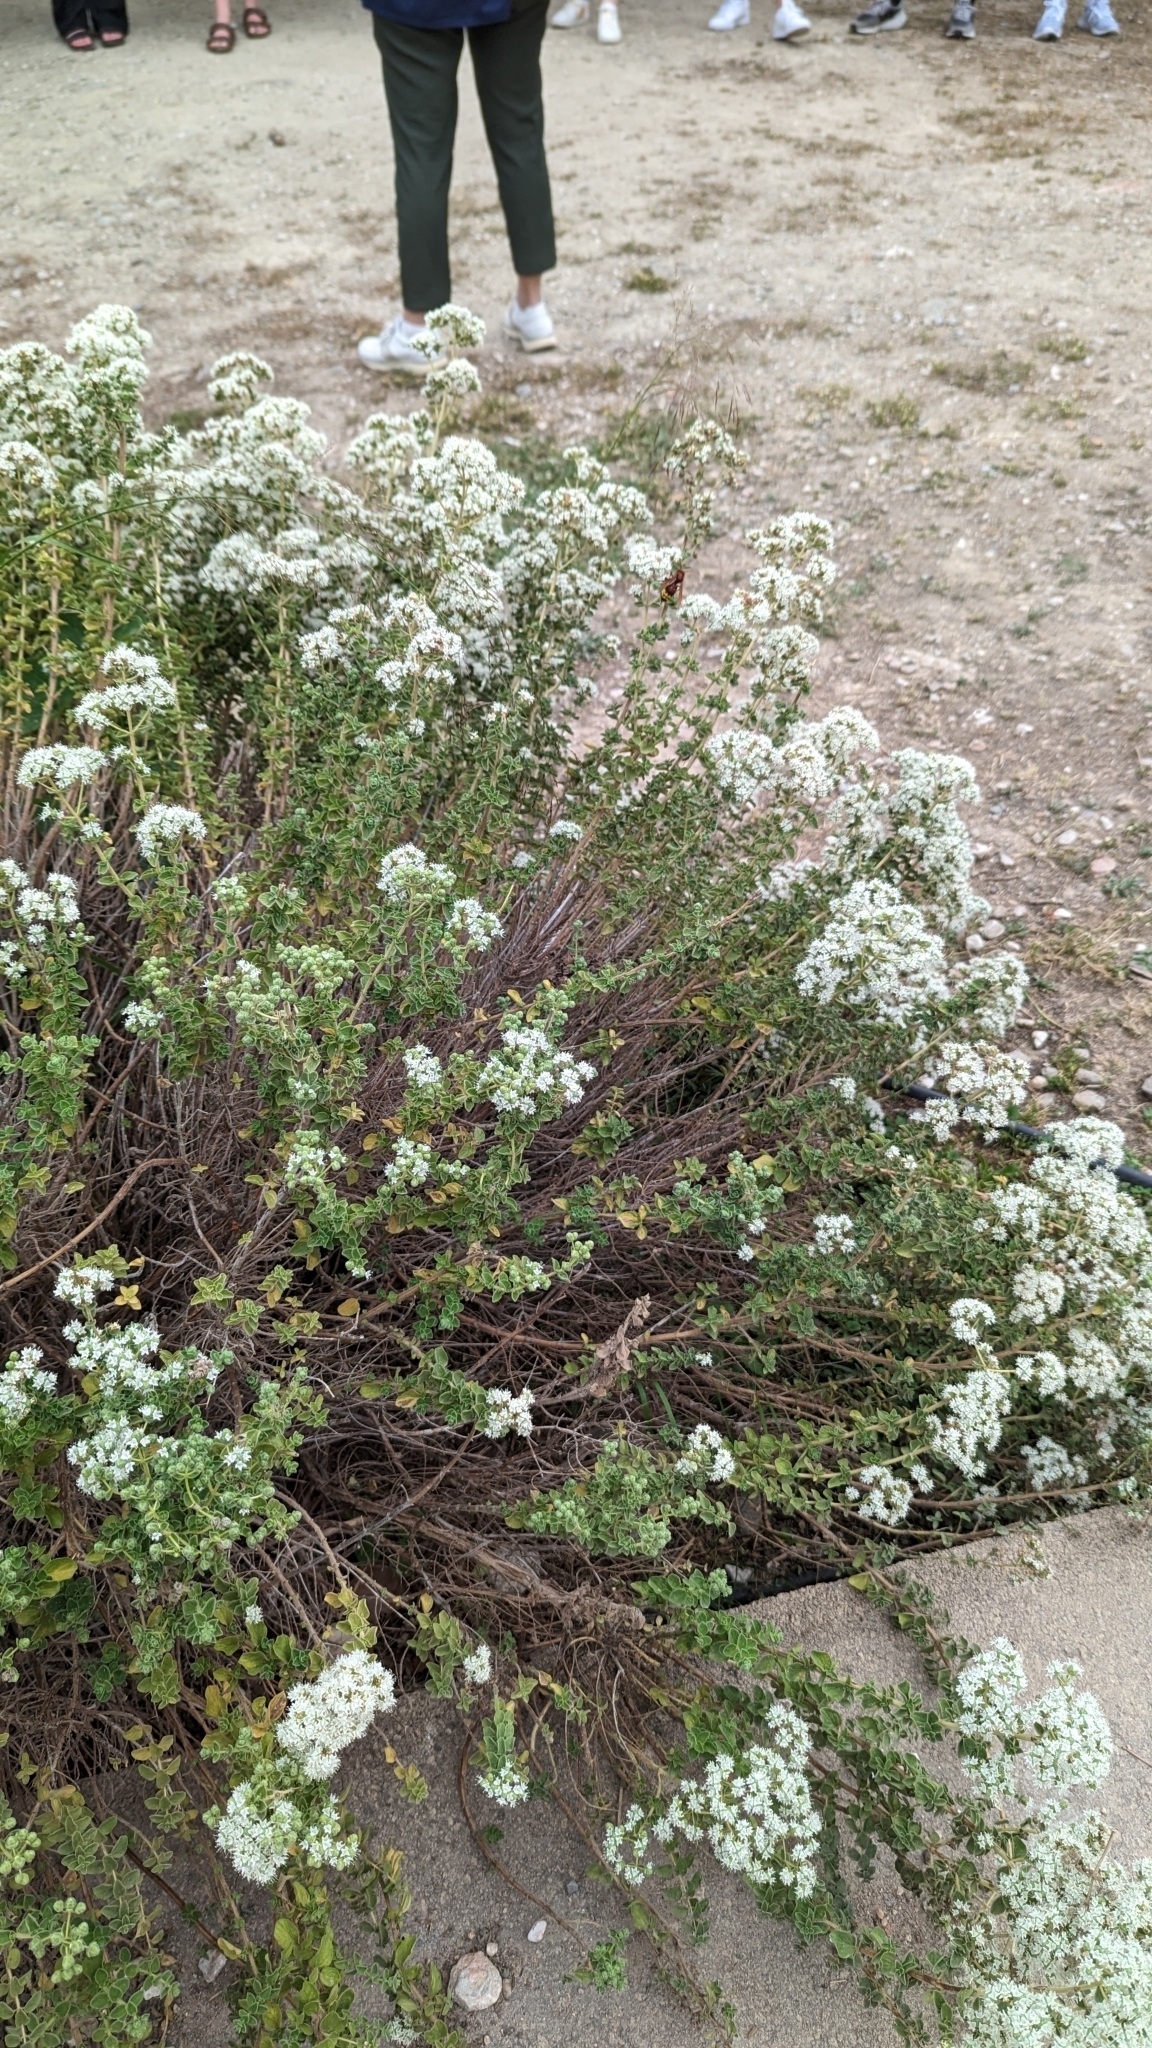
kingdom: Animalia
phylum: Arthropoda
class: Insecta
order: Hymenoptera
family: Vespidae
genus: Vespa
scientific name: Vespa orientalis
